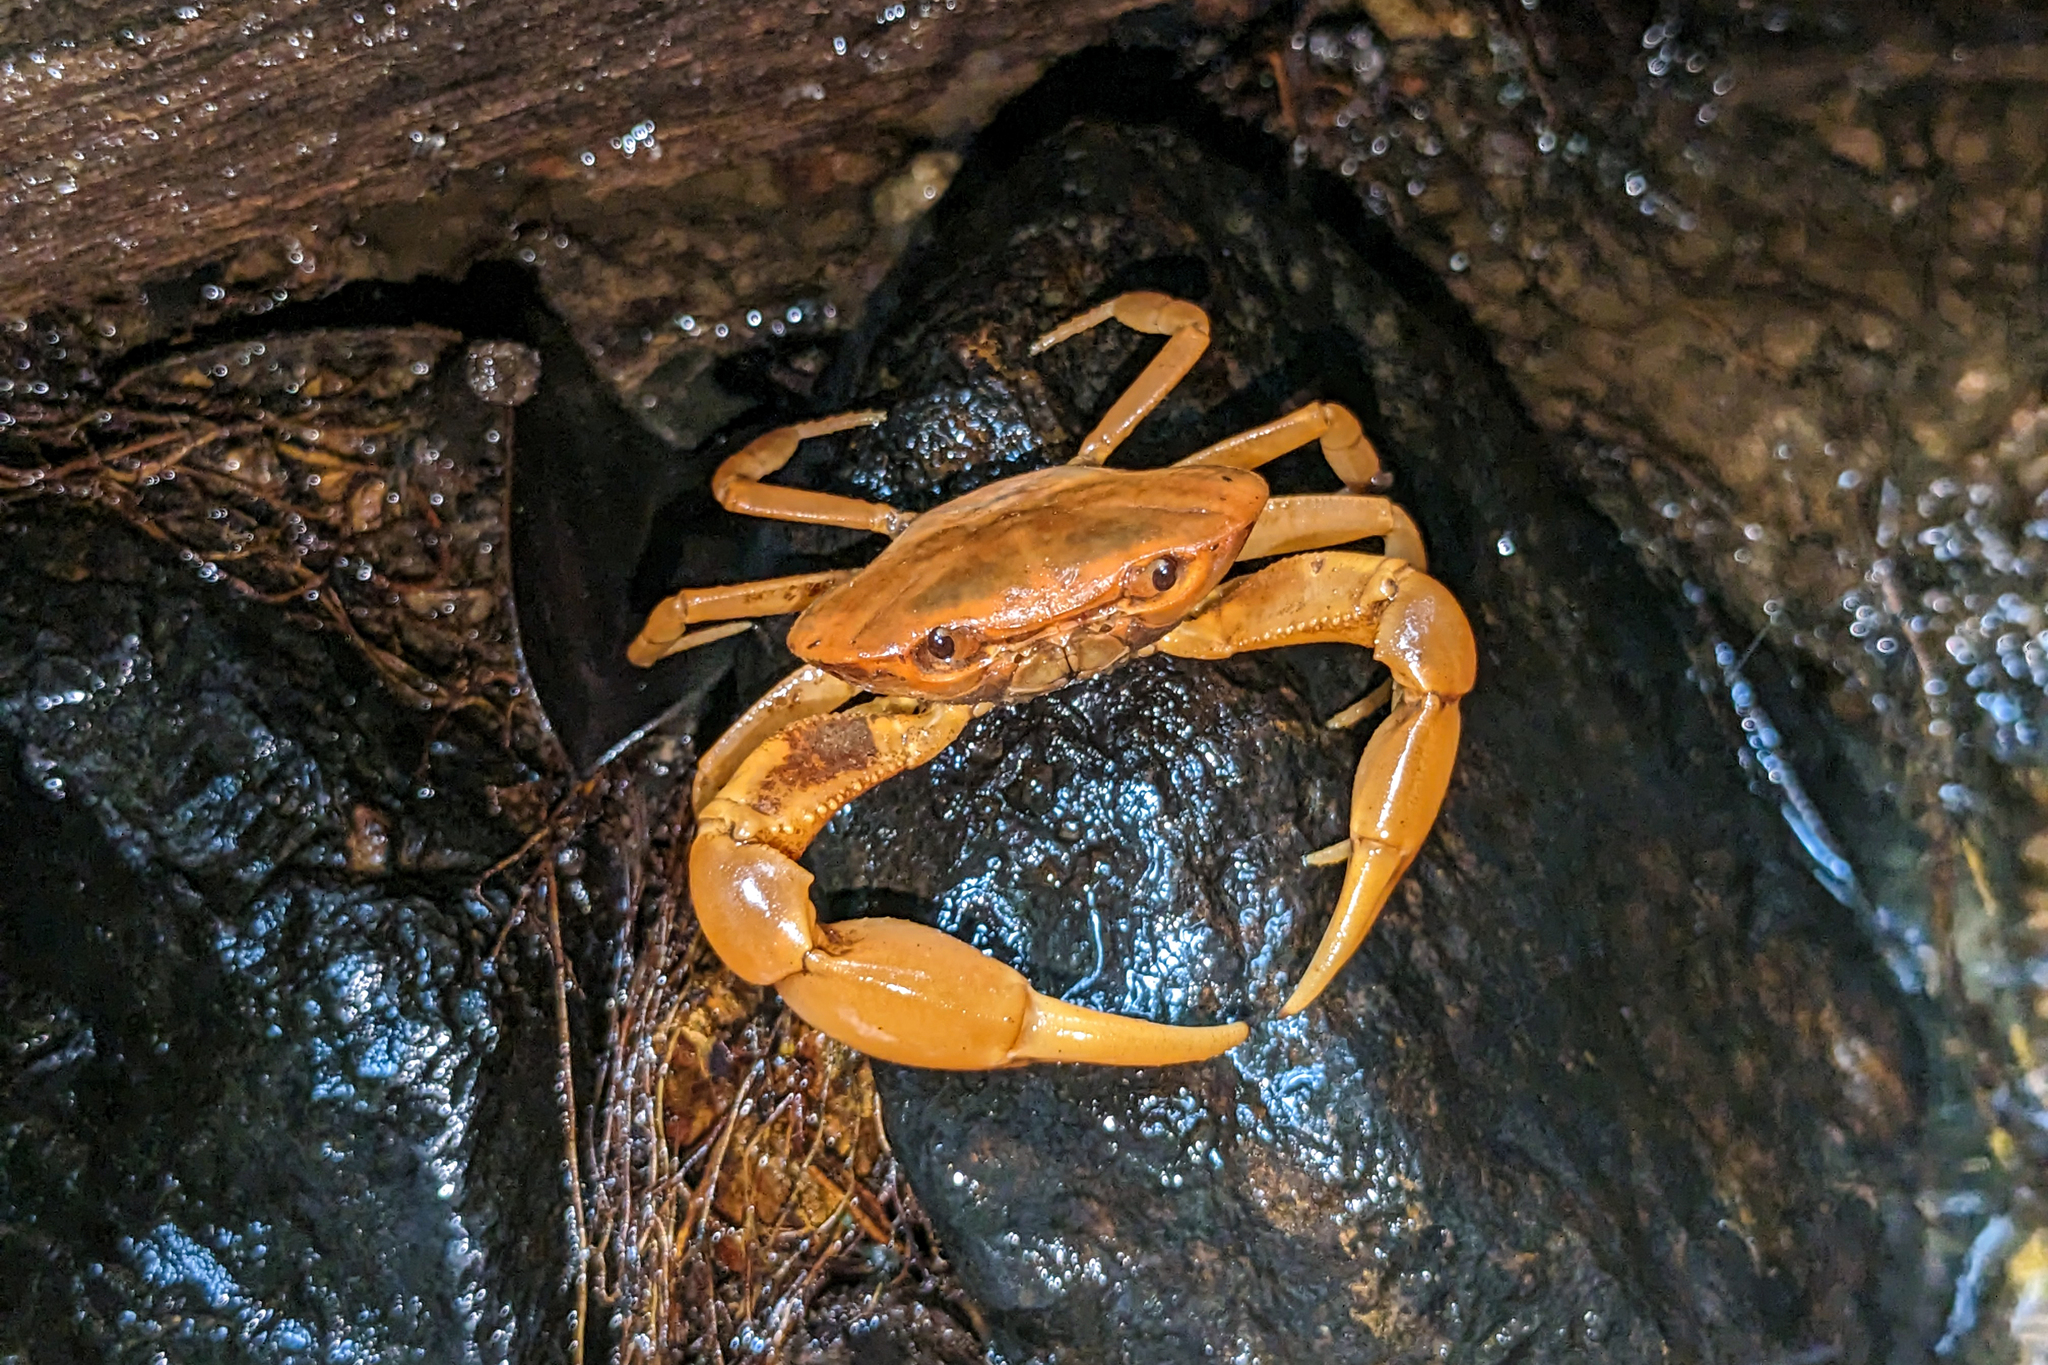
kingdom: Animalia
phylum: Arthropoda
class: Malacostraca
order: Decapoda
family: Pseudothelphusidae
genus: Microthelphusa
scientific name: Microthelphusa wymani
